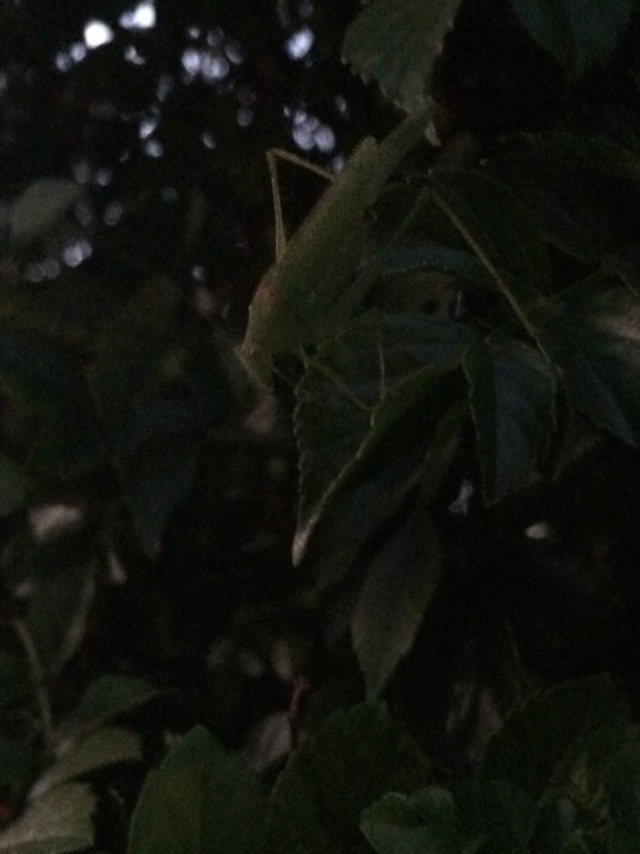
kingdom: Animalia
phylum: Arthropoda
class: Insecta
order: Orthoptera
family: Tettigoniidae
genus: Phaneroptera
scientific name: Phaneroptera nana
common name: Southern sickle bush-cricket
